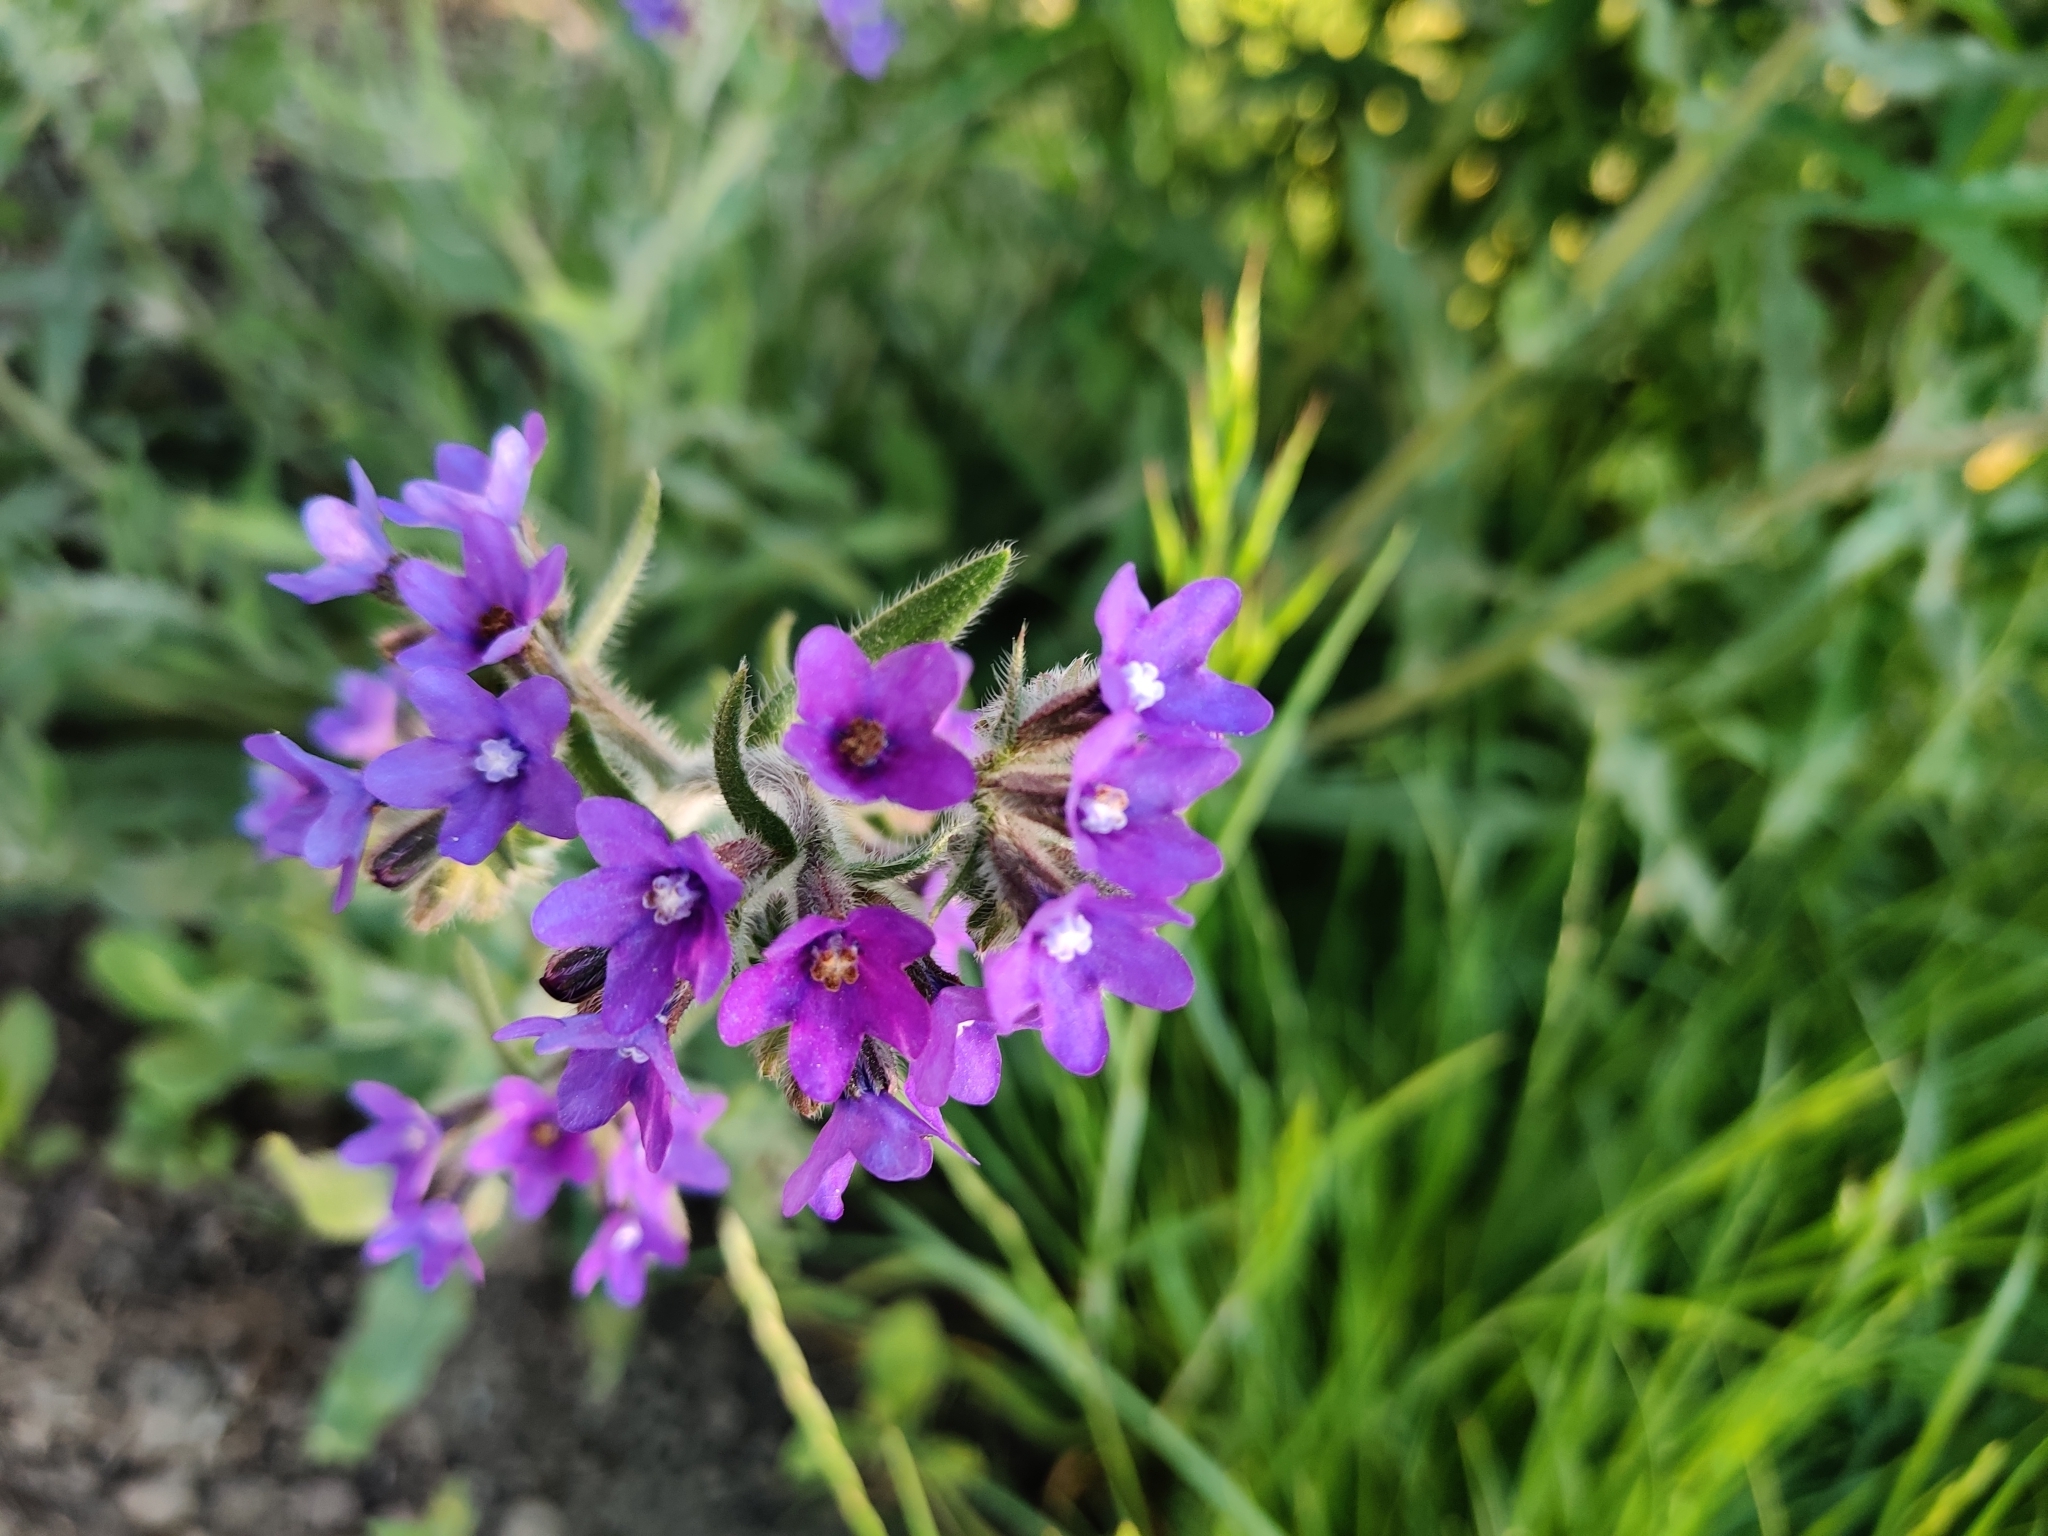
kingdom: Plantae
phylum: Tracheophyta
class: Magnoliopsida
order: Boraginales
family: Boraginaceae
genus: Anchusa
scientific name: Anchusa officinalis
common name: Alkanet
